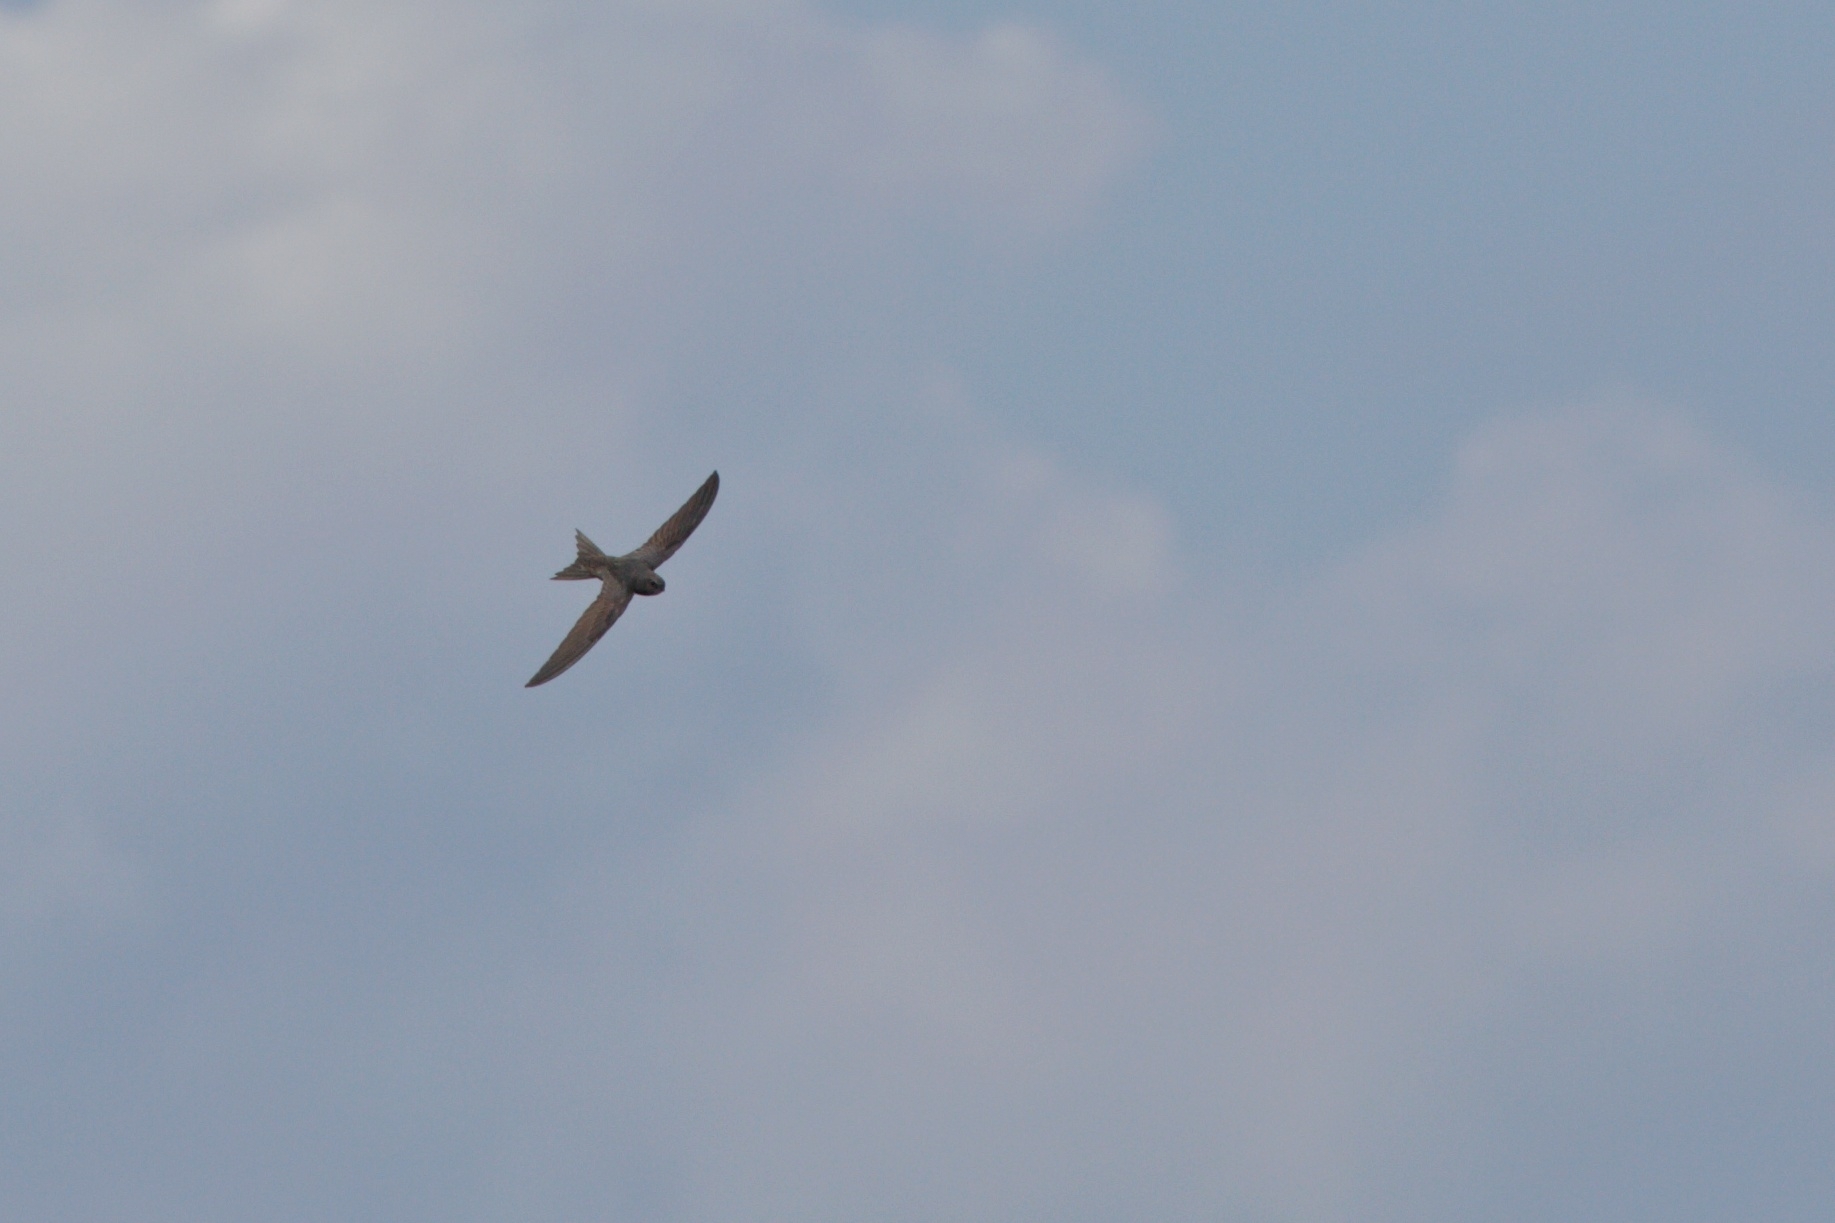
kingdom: Animalia
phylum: Chordata
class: Aves
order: Apodiformes
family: Apodidae
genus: Apus
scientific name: Apus apus
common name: Common swift
